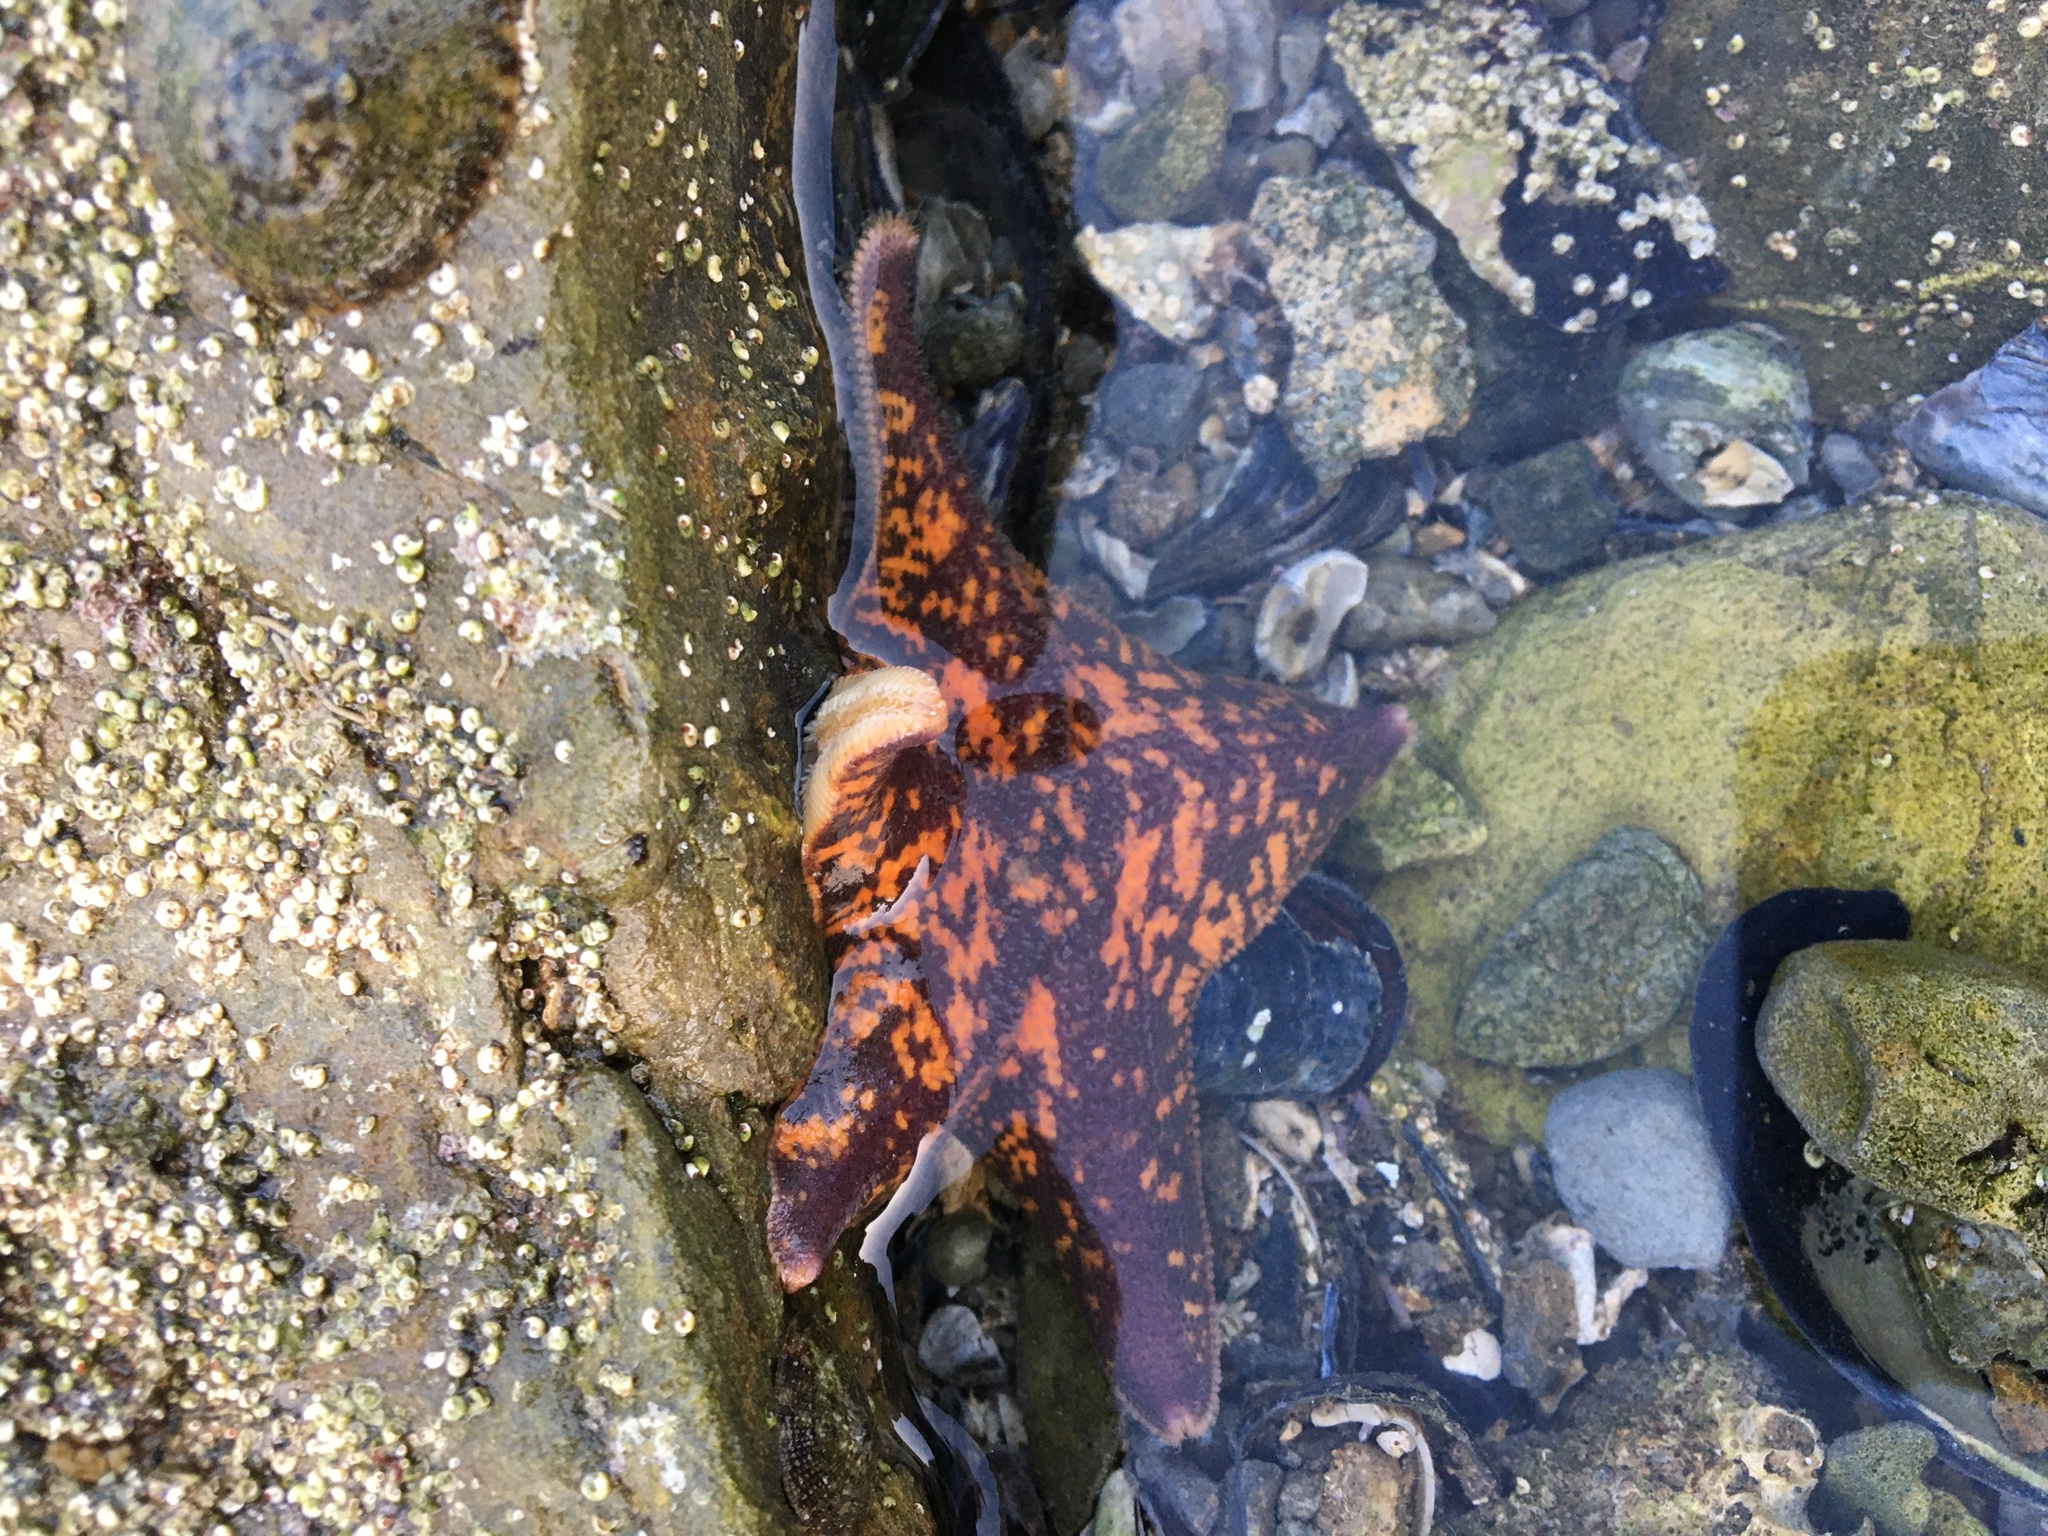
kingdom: Animalia
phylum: Echinodermata
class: Asteroidea
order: Valvatida
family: Asterinidae
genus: Patiria
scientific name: Patiria miniata
